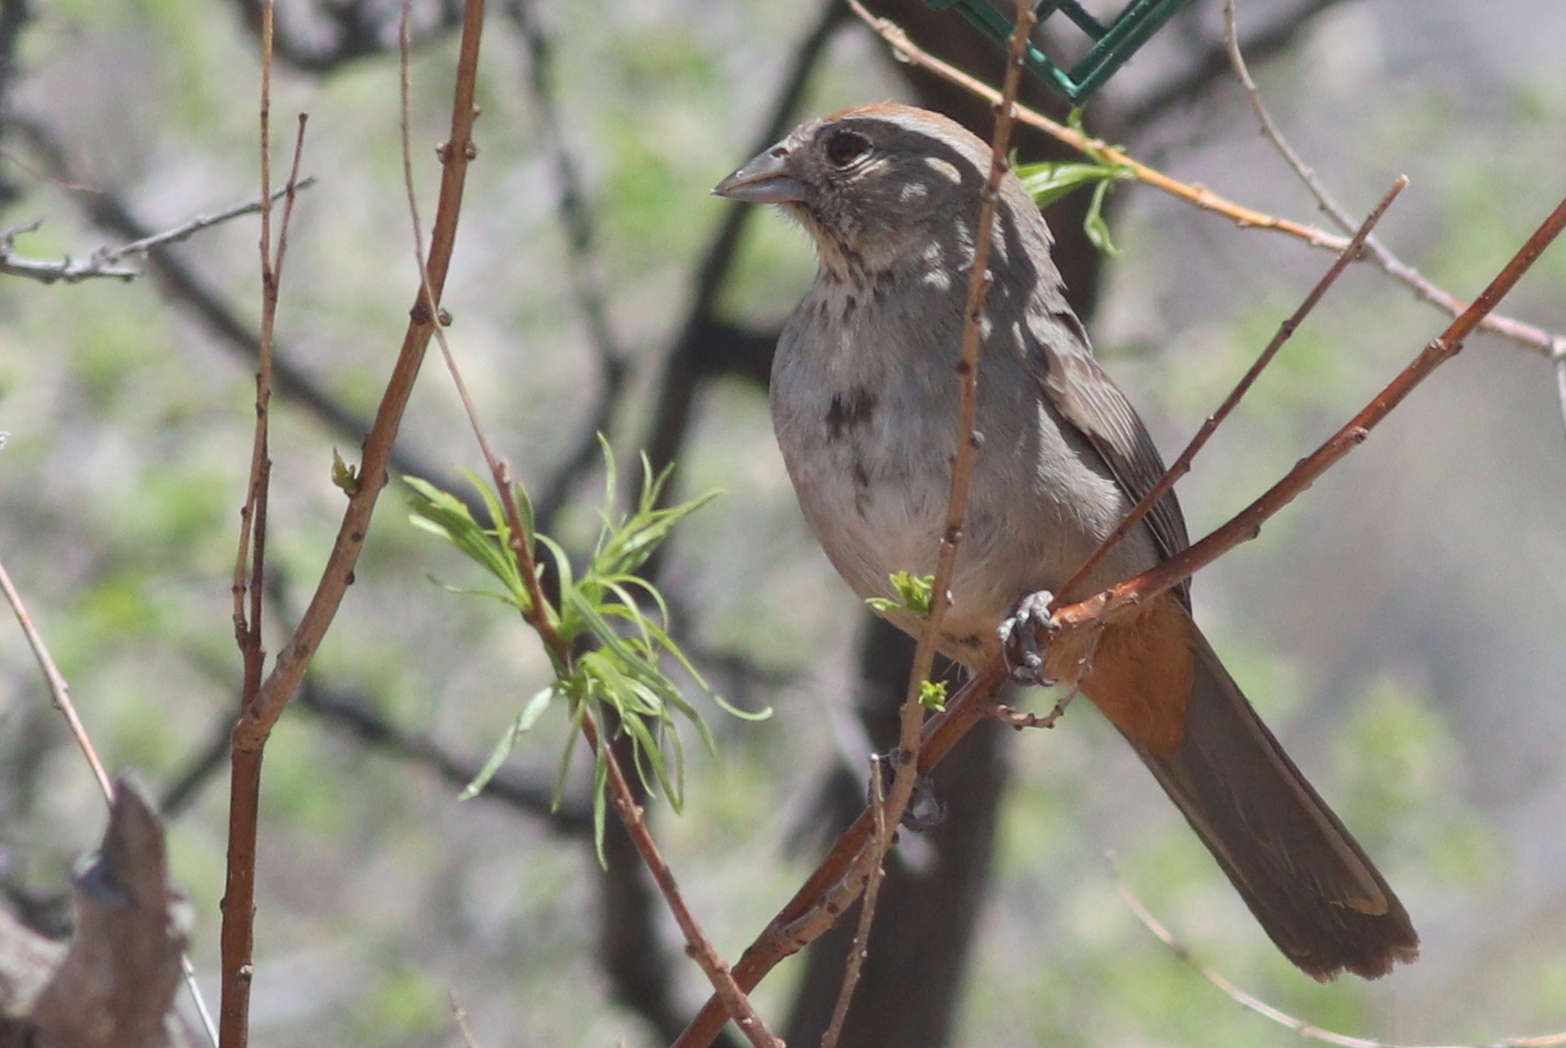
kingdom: Animalia
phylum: Chordata
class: Aves
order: Passeriformes
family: Passerellidae
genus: Melozone
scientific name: Melozone fusca
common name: Canyon towhee
